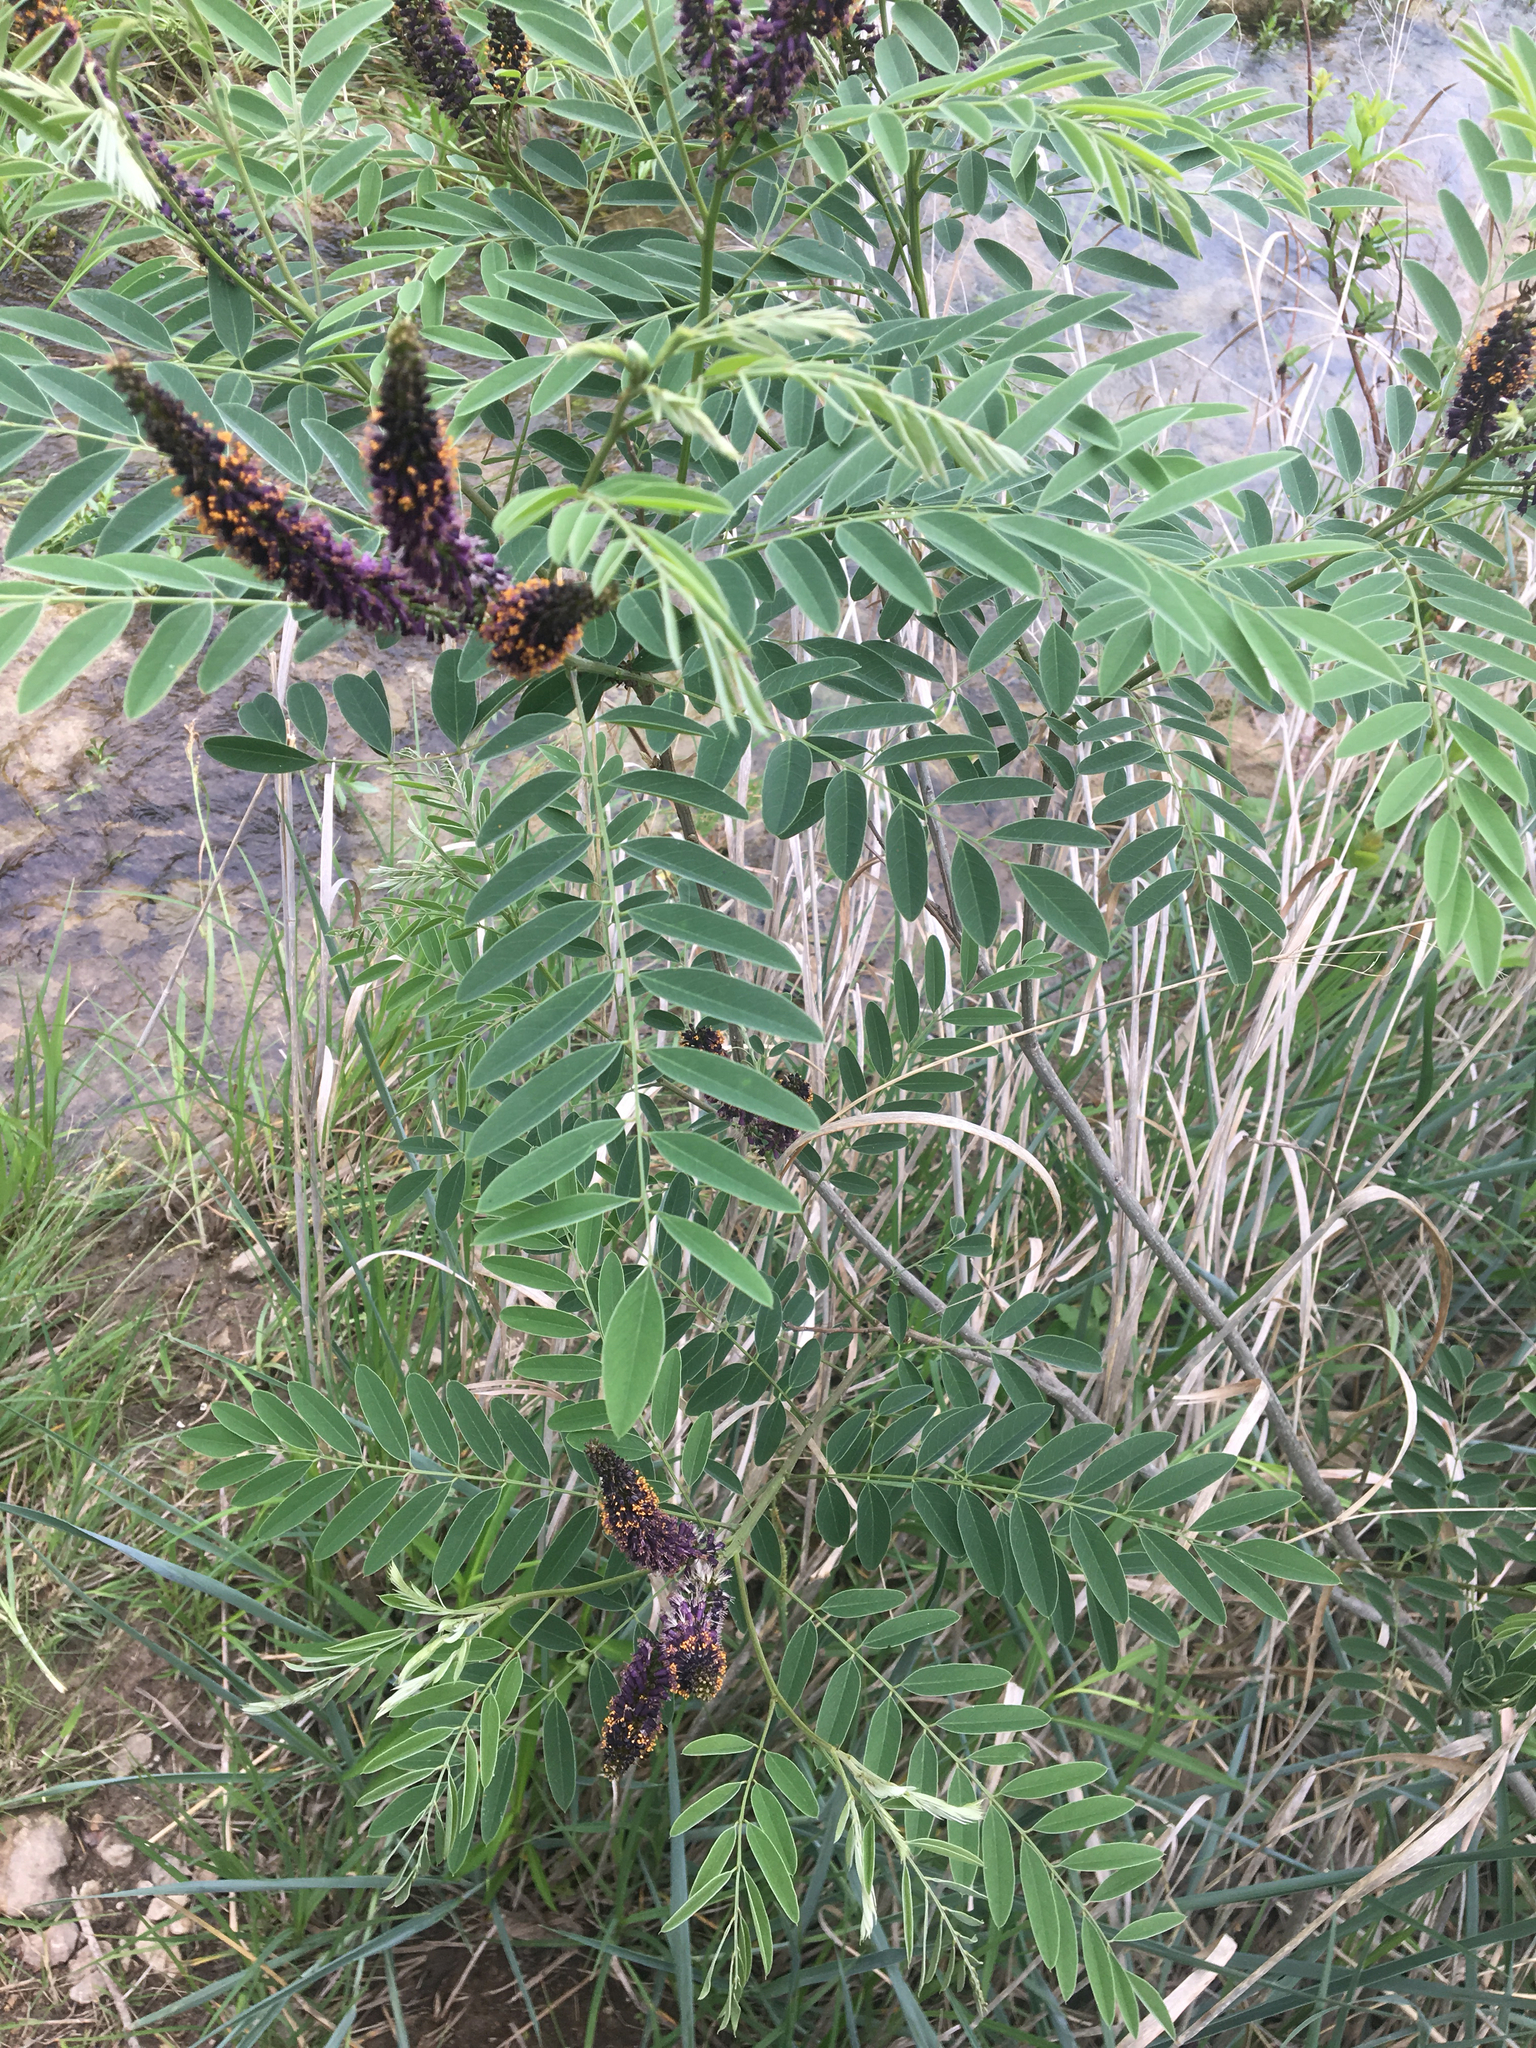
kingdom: Plantae
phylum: Tracheophyta
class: Magnoliopsida
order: Fabales
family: Fabaceae
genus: Amorpha
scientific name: Amorpha fruticosa
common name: False indigo
